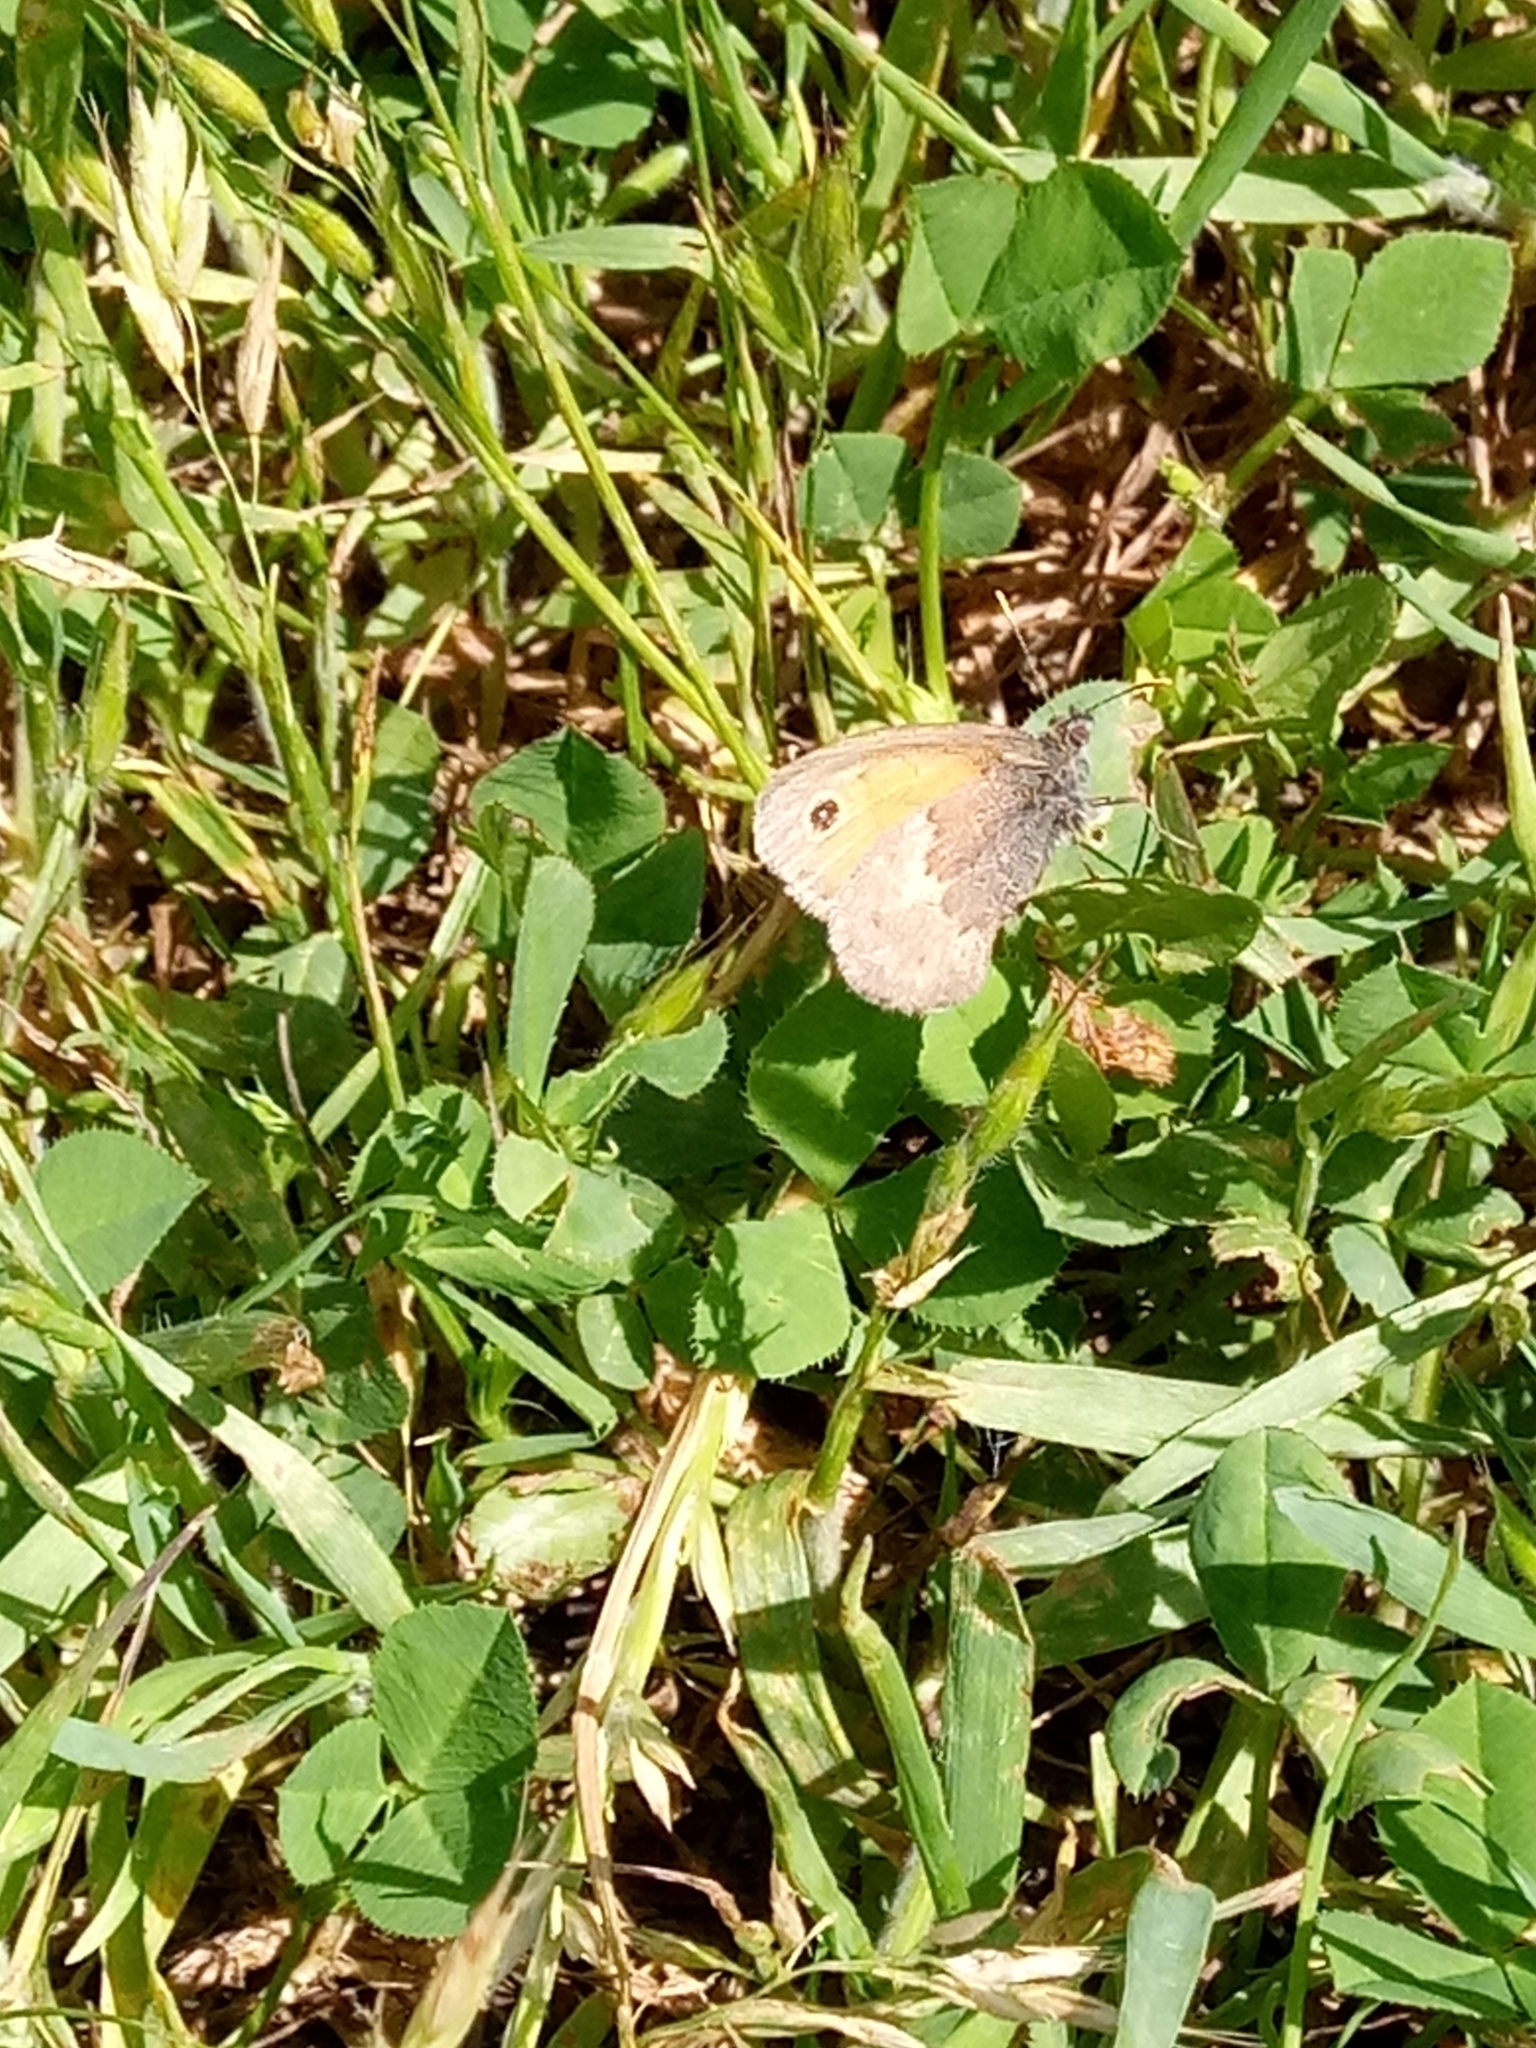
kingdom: Animalia
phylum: Arthropoda
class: Insecta
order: Lepidoptera
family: Nymphalidae
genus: Coenonympha
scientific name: Coenonympha pamphilus
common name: Small heath
